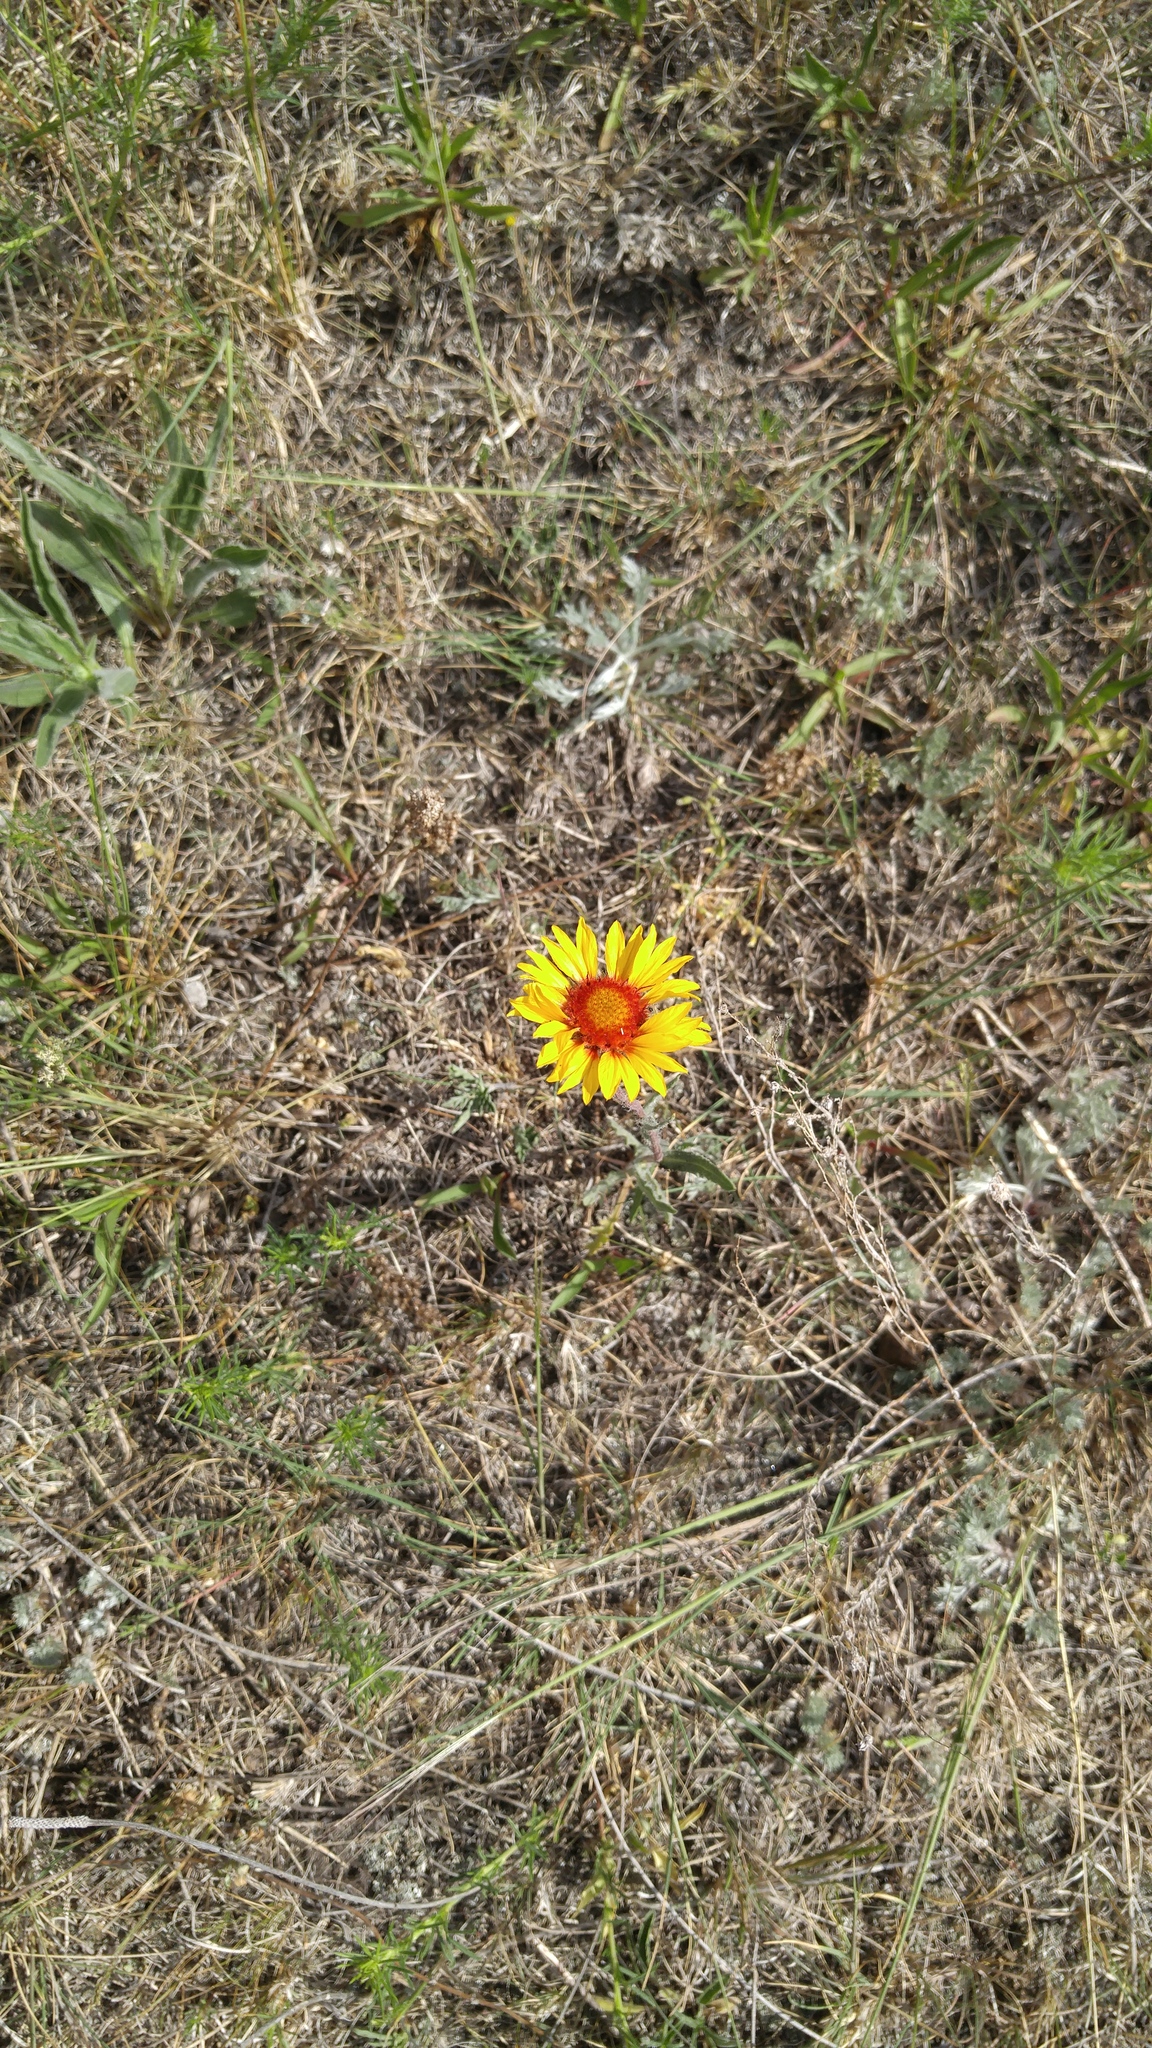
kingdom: Plantae
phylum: Tracheophyta
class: Magnoliopsida
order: Asterales
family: Asteraceae
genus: Gaillardia
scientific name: Gaillardia aristata
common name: Blanket-flower
